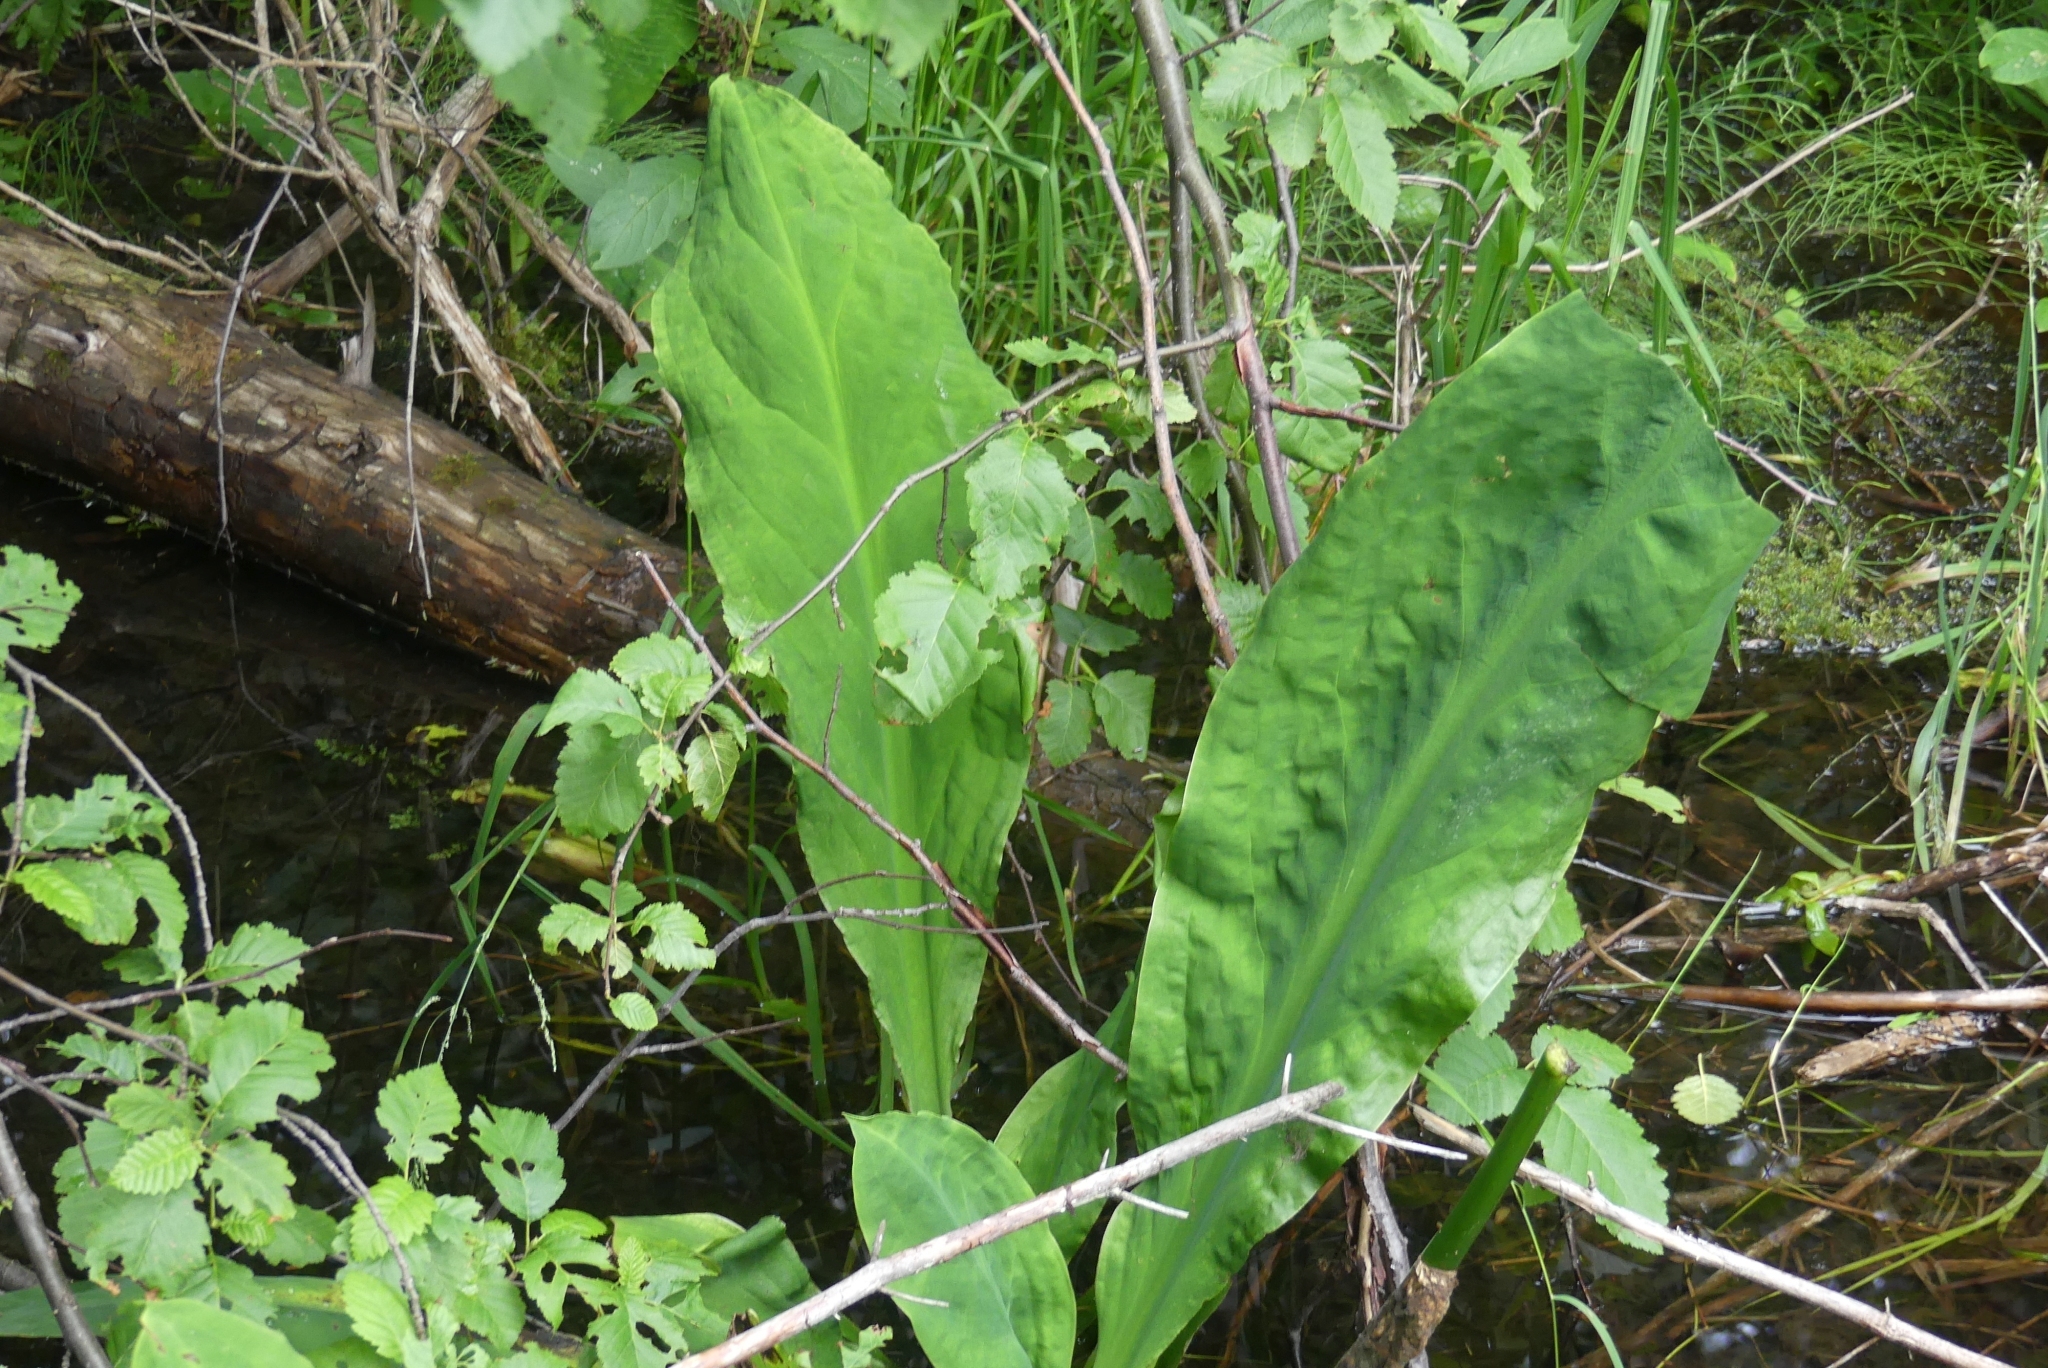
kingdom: Plantae
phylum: Tracheophyta
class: Liliopsida
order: Alismatales
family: Araceae
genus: Lysichiton
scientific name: Lysichiton americanus
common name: American skunk cabbage
